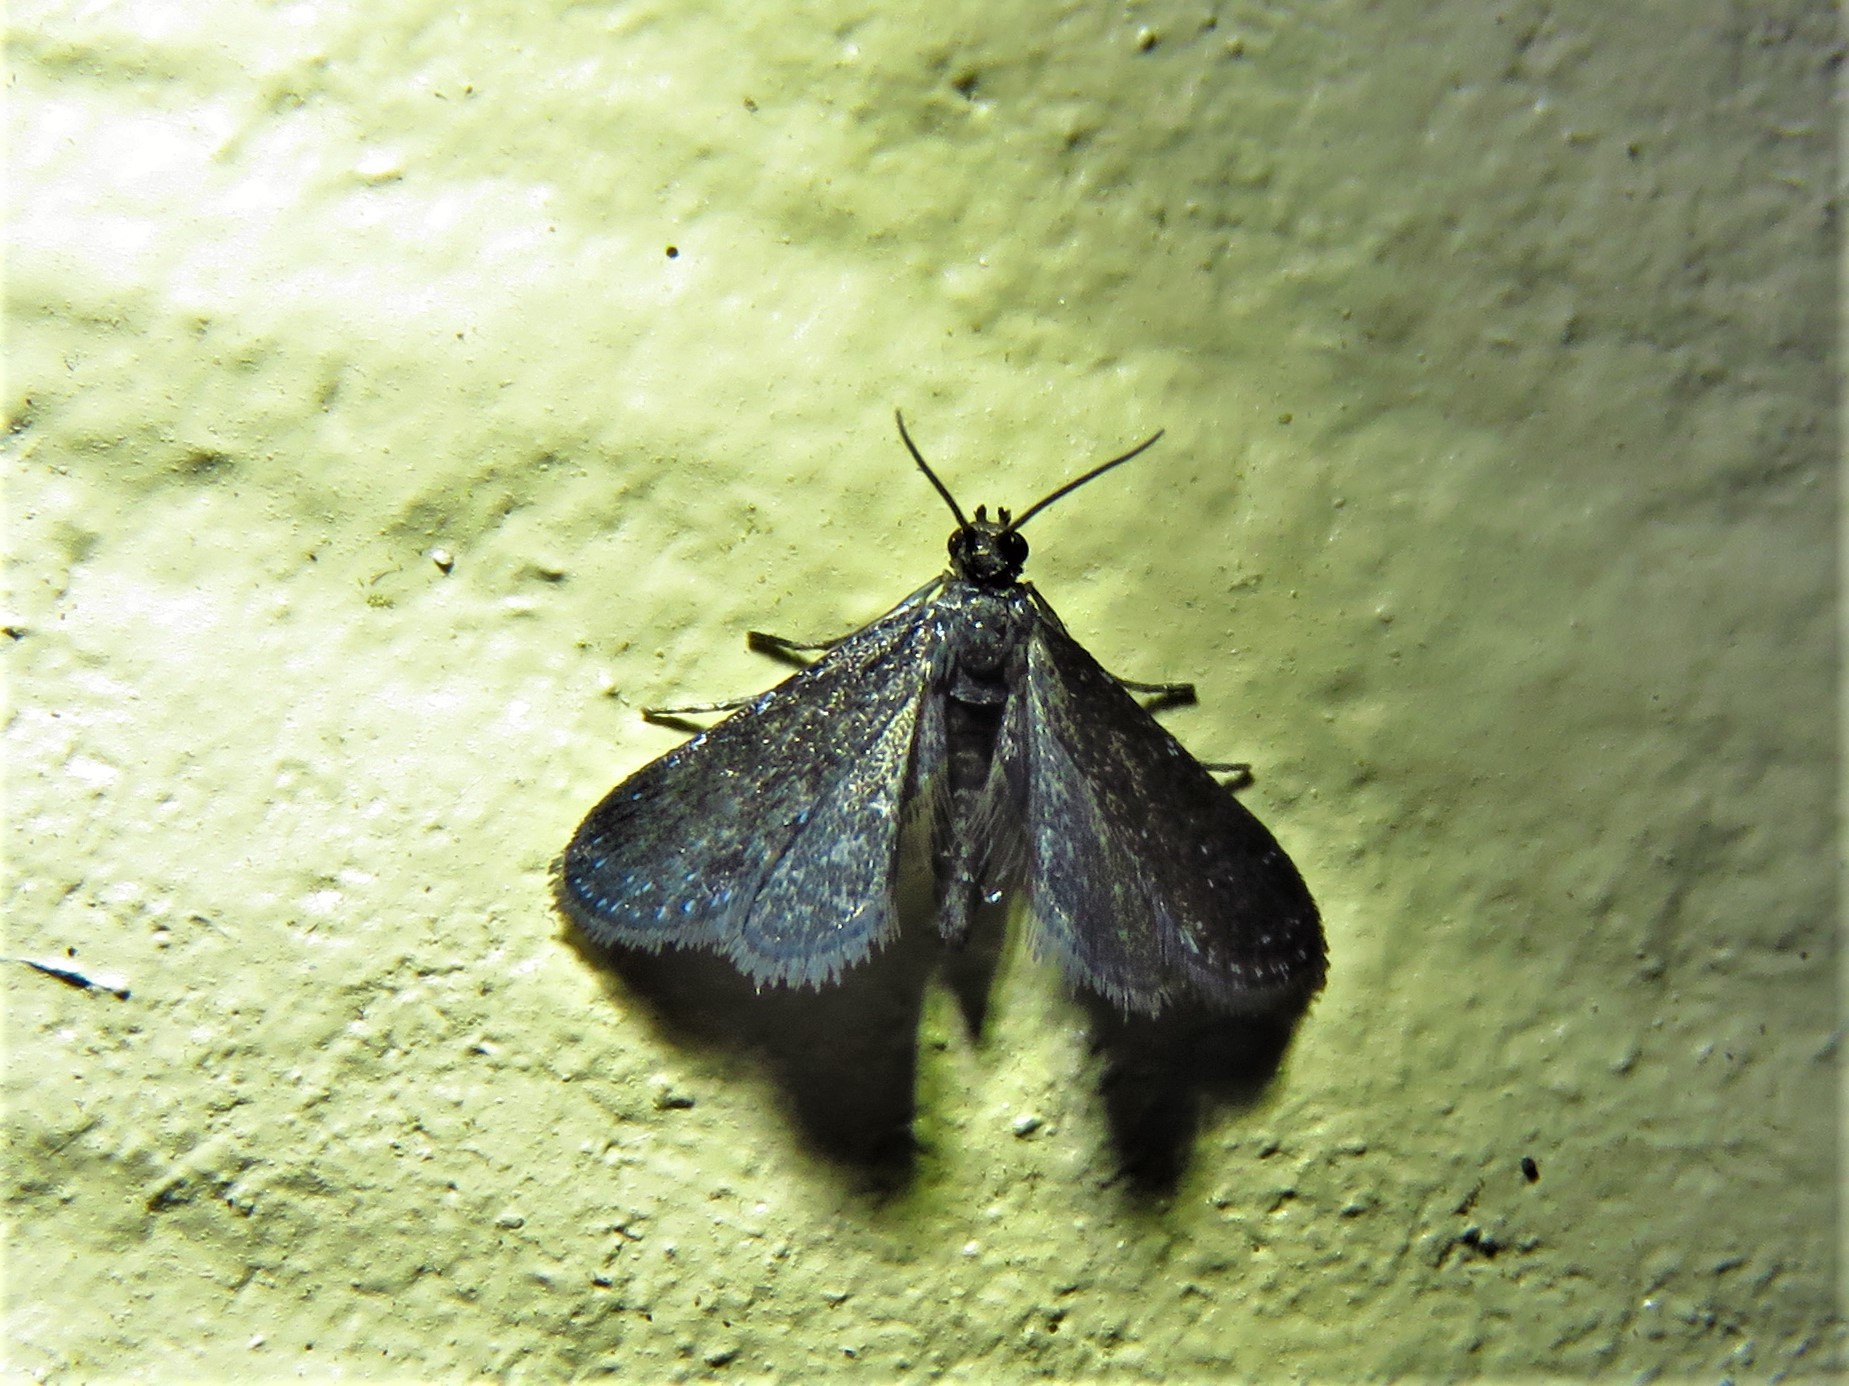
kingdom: Animalia
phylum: Arthropoda
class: Insecta
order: Lepidoptera
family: Crambidae
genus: Elophila
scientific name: Elophila tinealis
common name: Black duckweed moth
